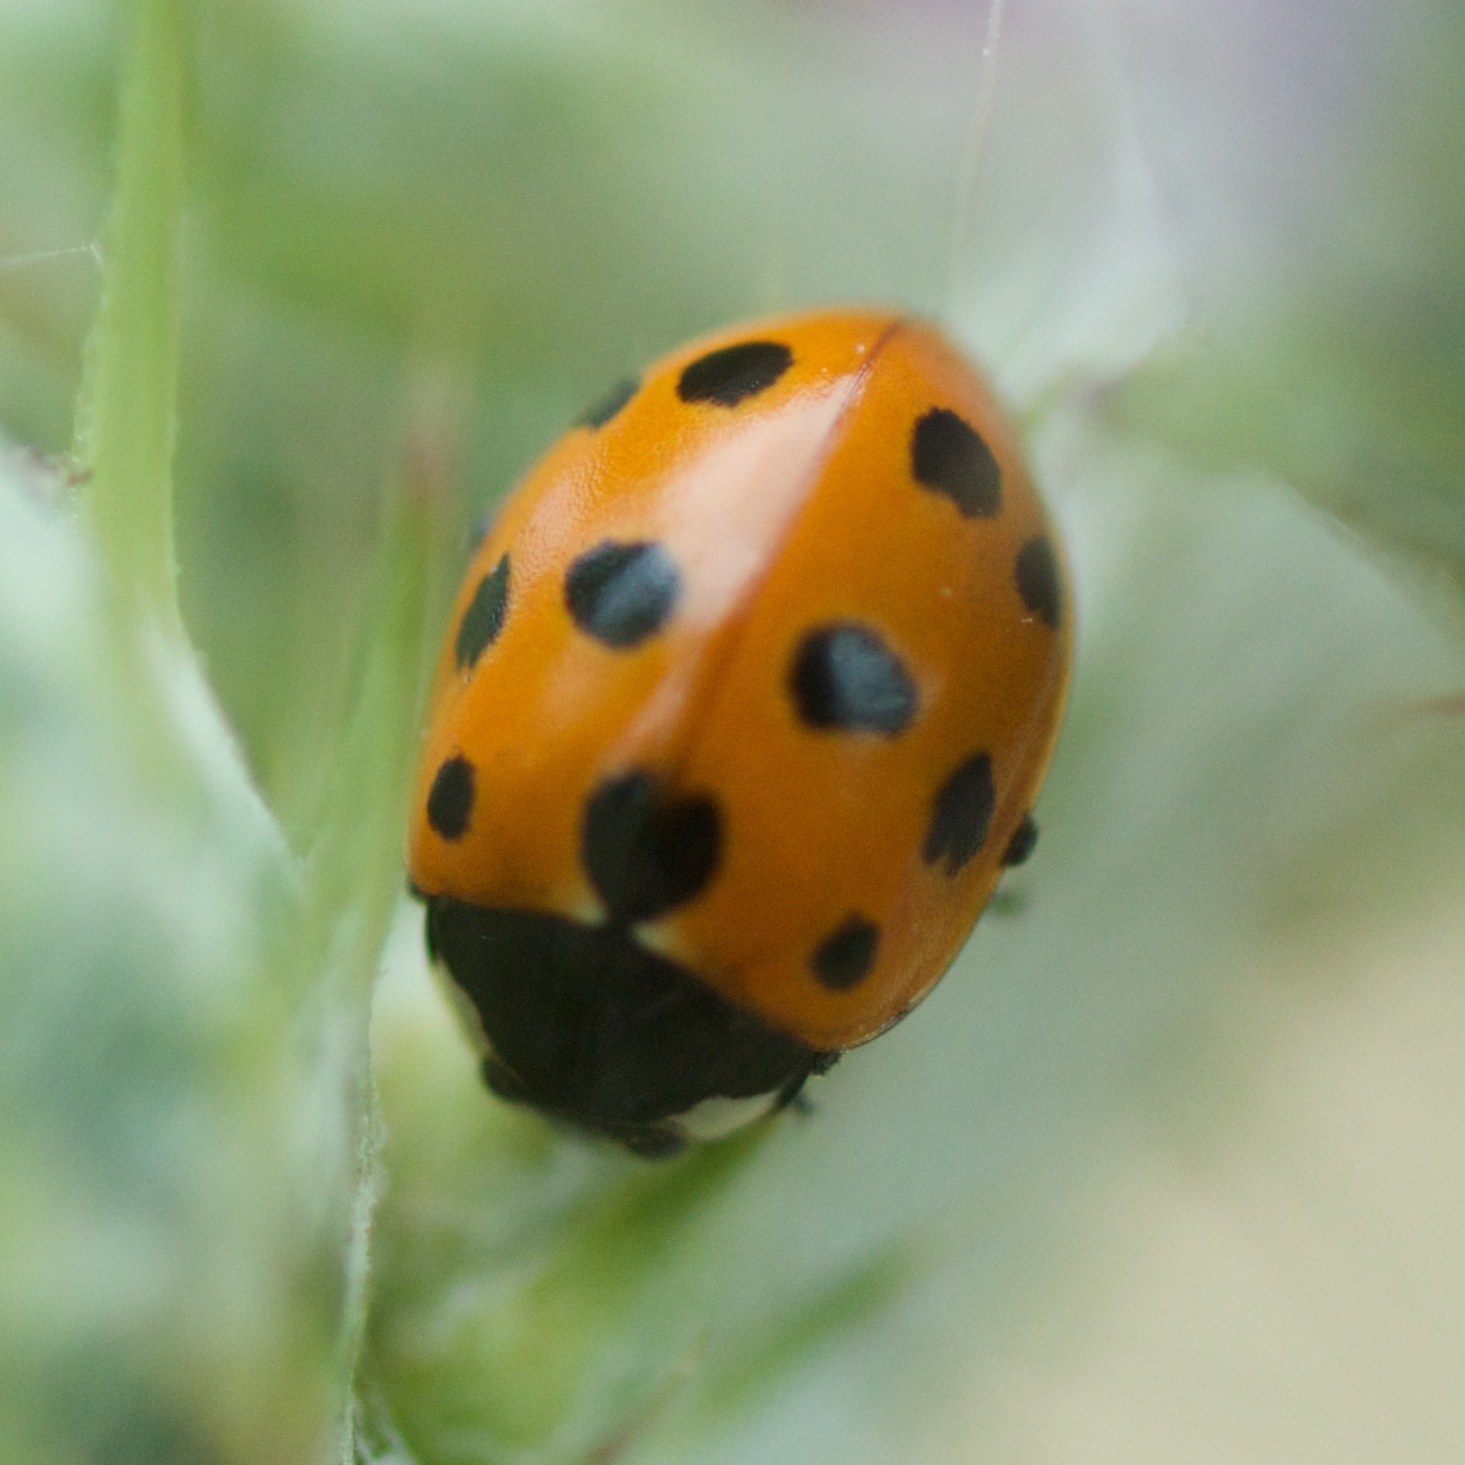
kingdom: Animalia
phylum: Arthropoda
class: Insecta
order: Coleoptera
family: Coccinellidae
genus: Coccinella
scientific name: Coccinella undecimpunctata
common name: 11-spot ladybird
